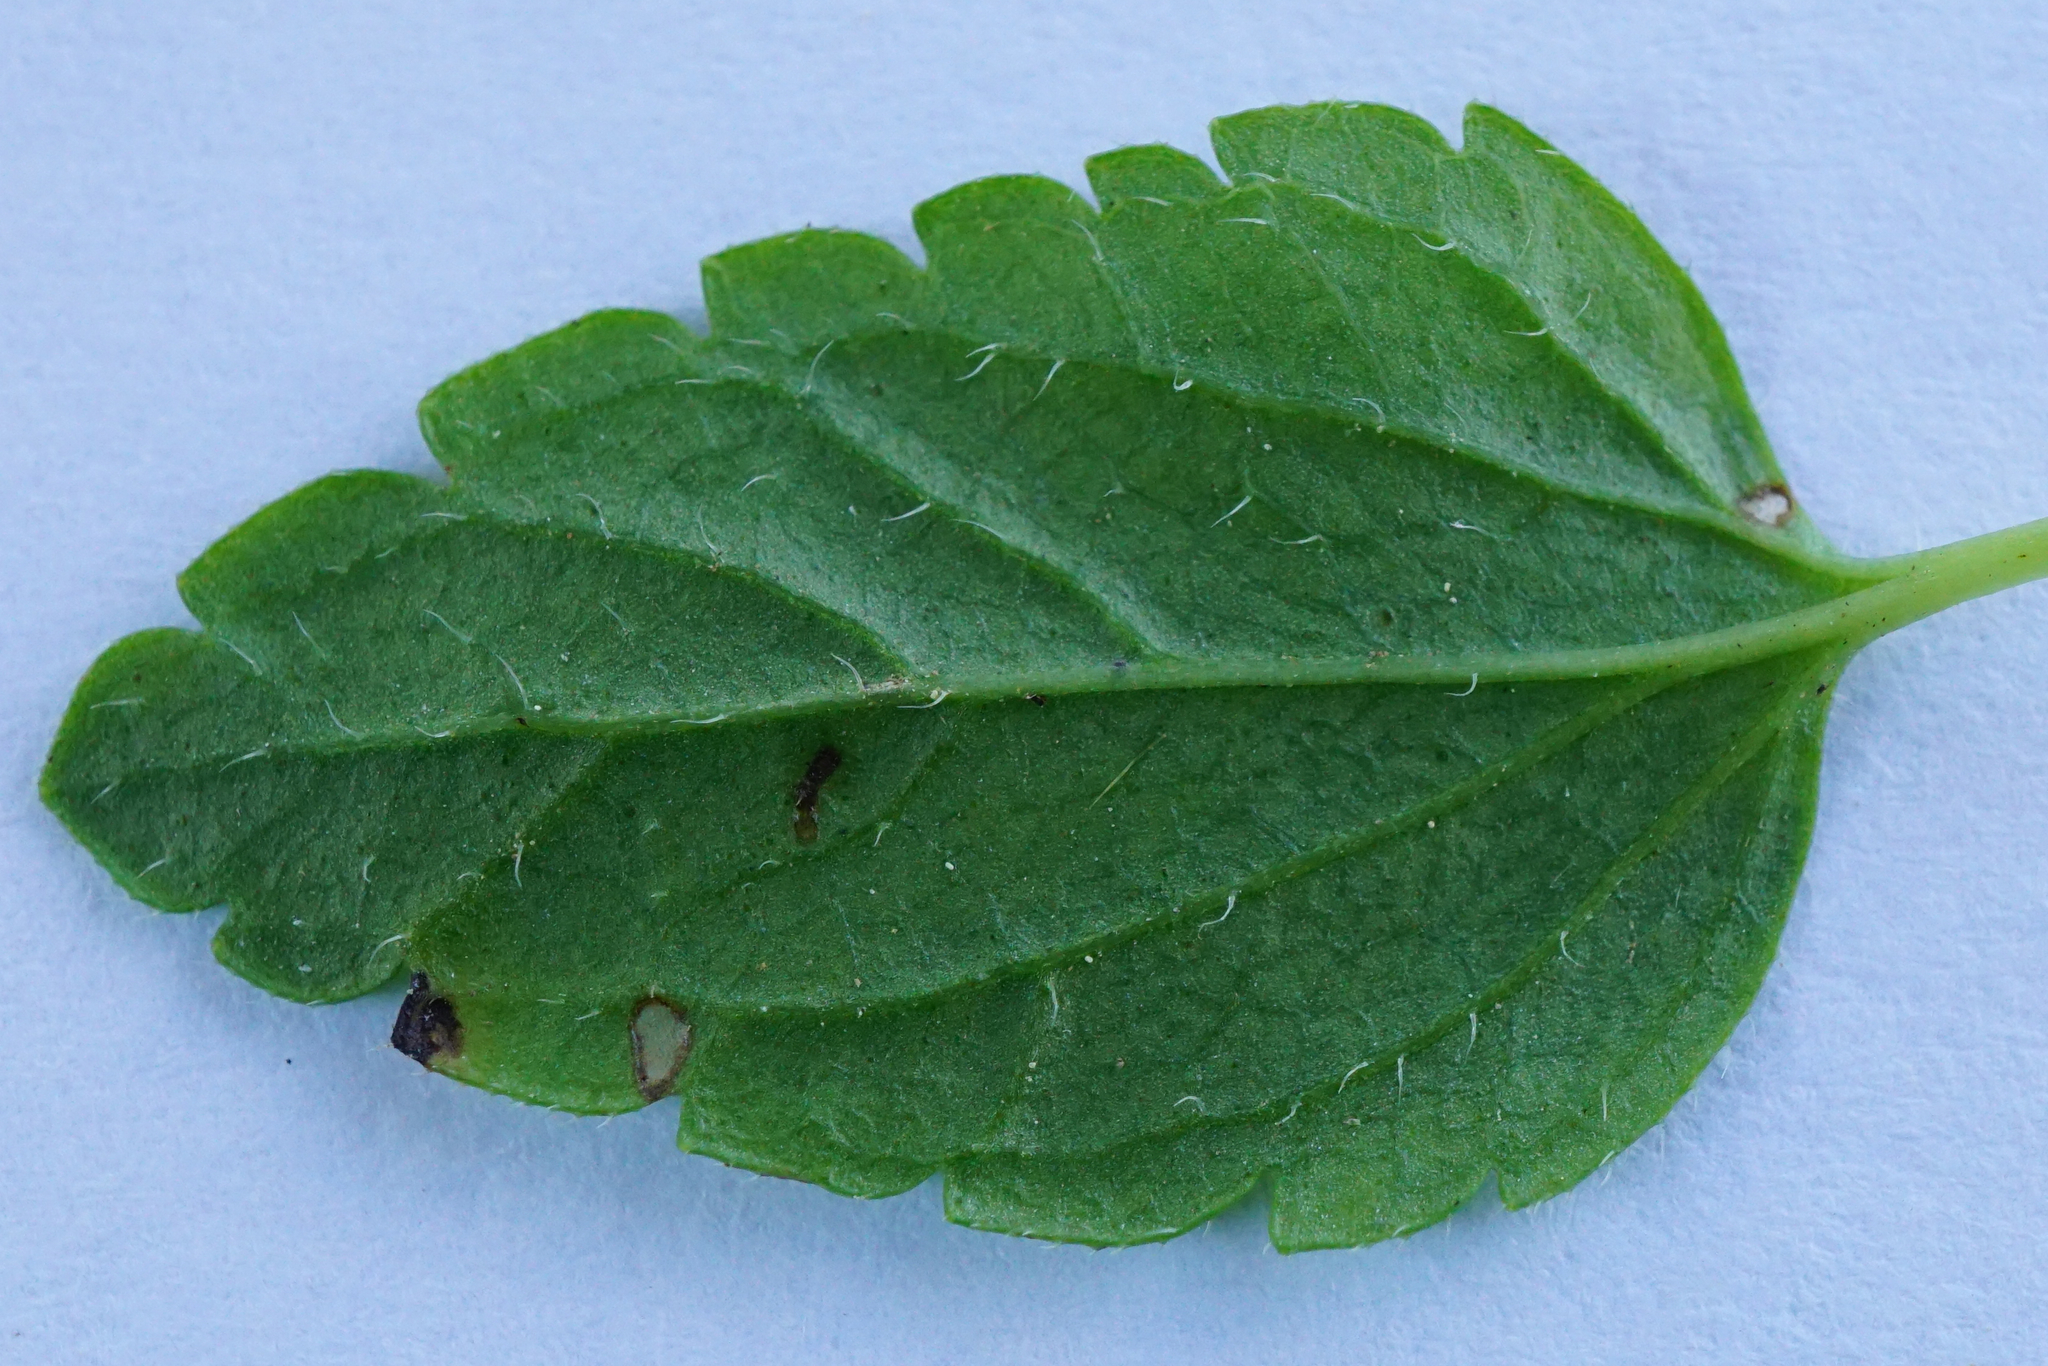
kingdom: Plantae
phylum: Tracheophyta
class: Magnoliopsida
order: Lamiales
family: Plantaginaceae
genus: Veronica
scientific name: Veronica chamaedrys
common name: Germander speedwell
